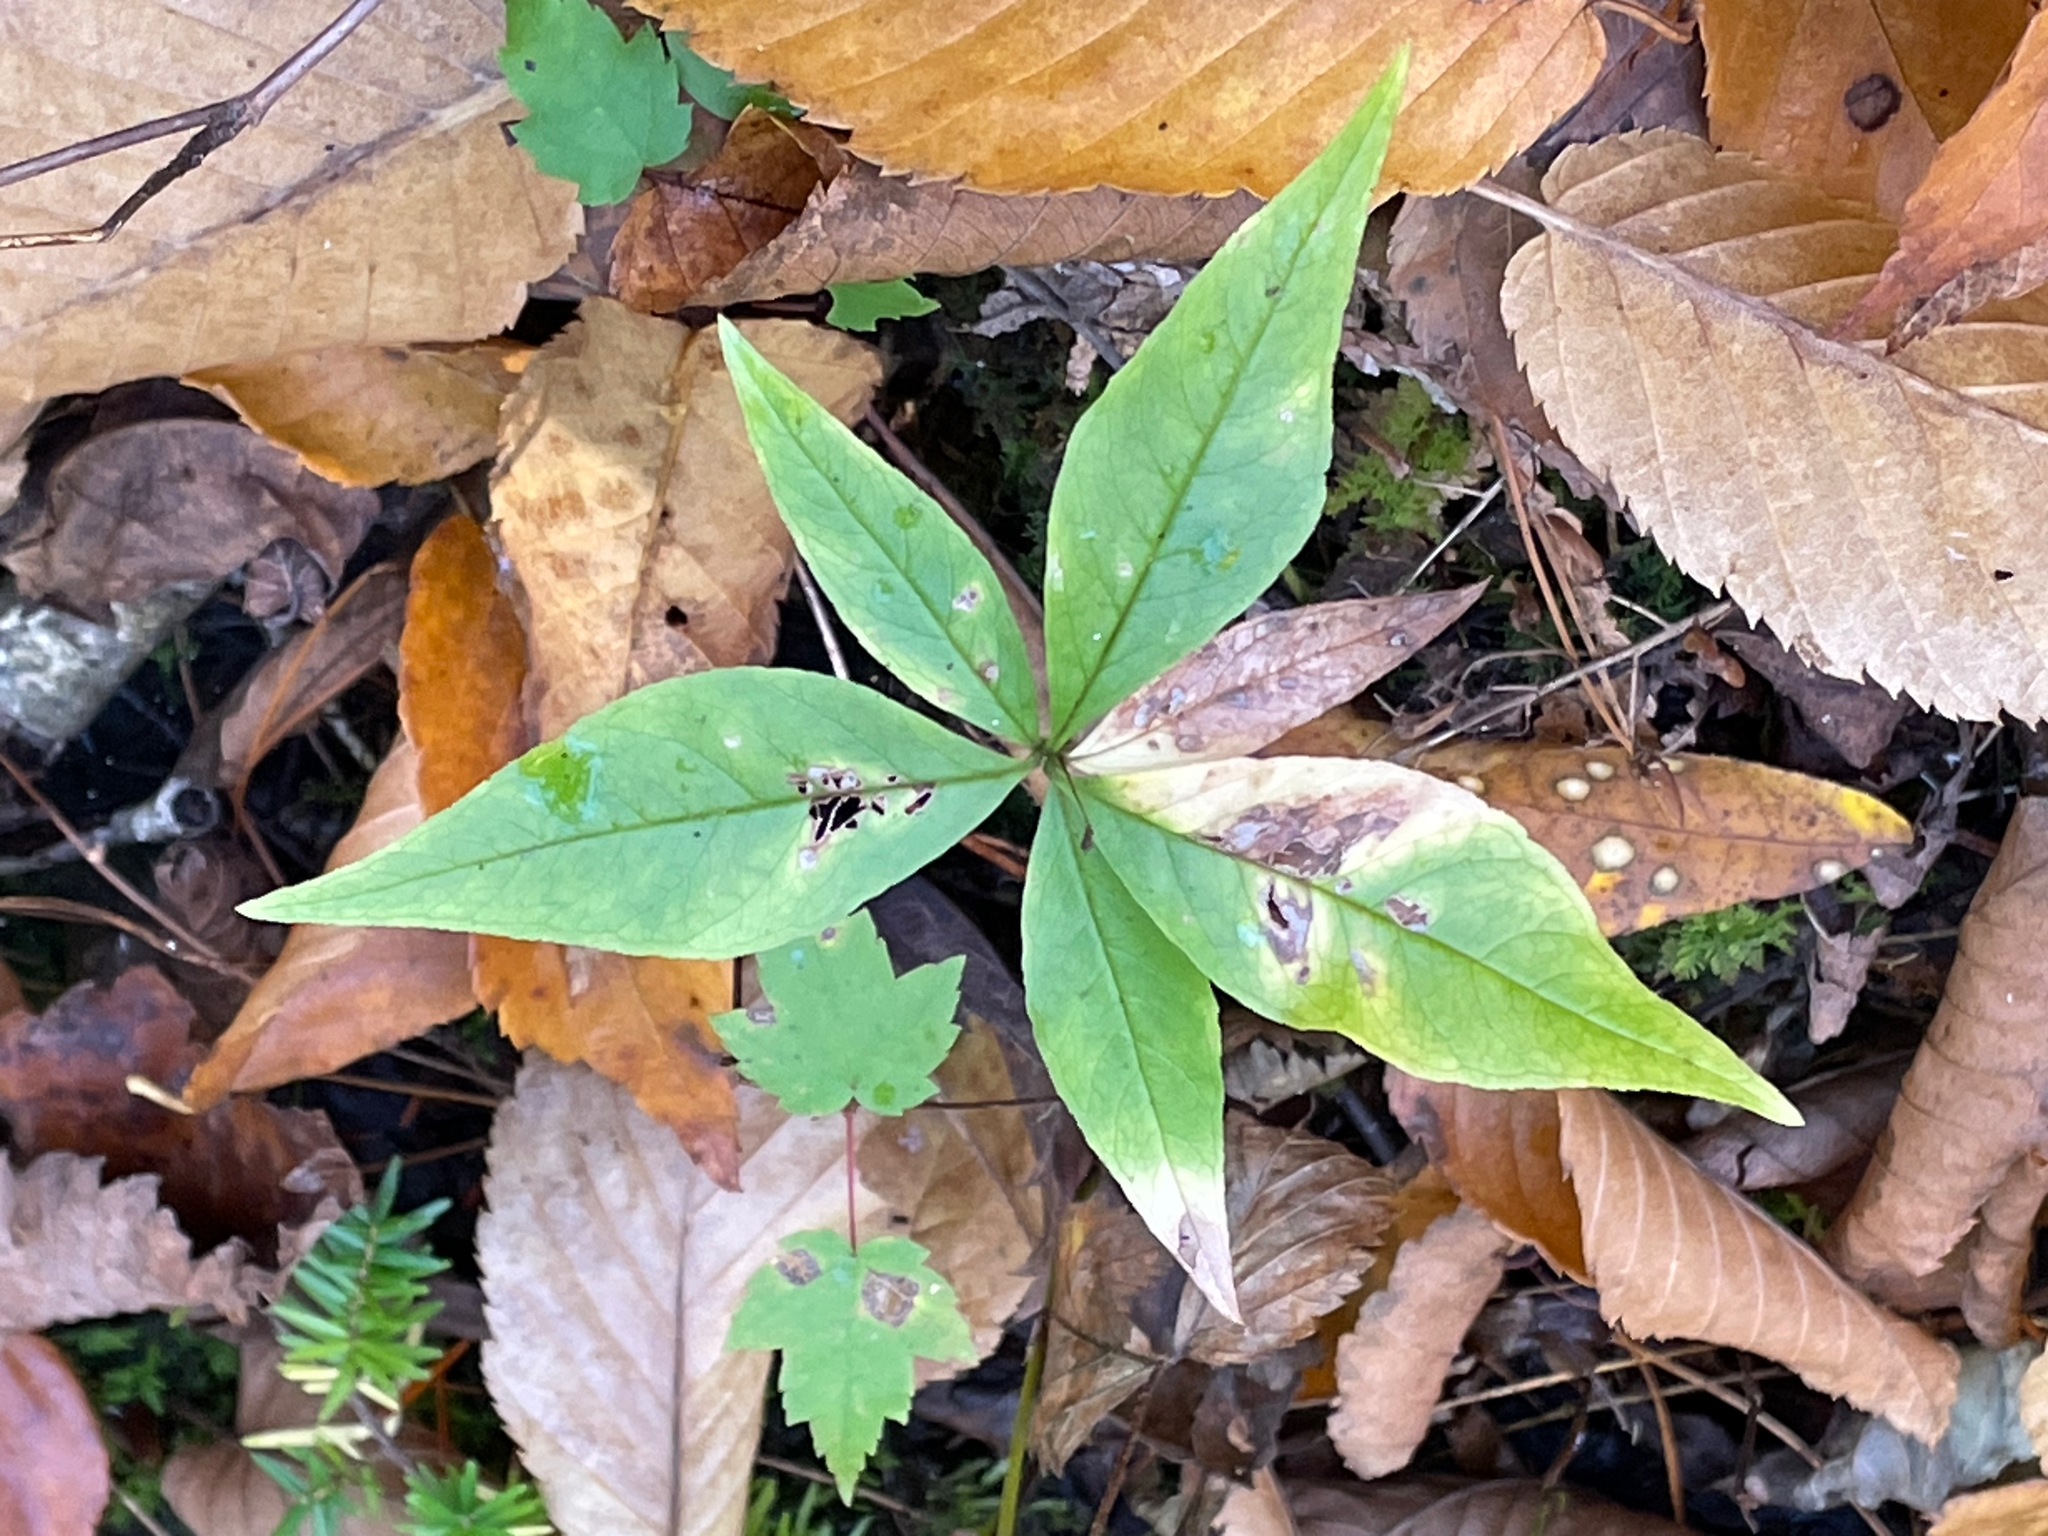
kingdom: Plantae
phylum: Tracheophyta
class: Magnoliopsida
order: Ericales
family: Primulaceae
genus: Lysimachia
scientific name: Lysimachia borealis
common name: American starflower
